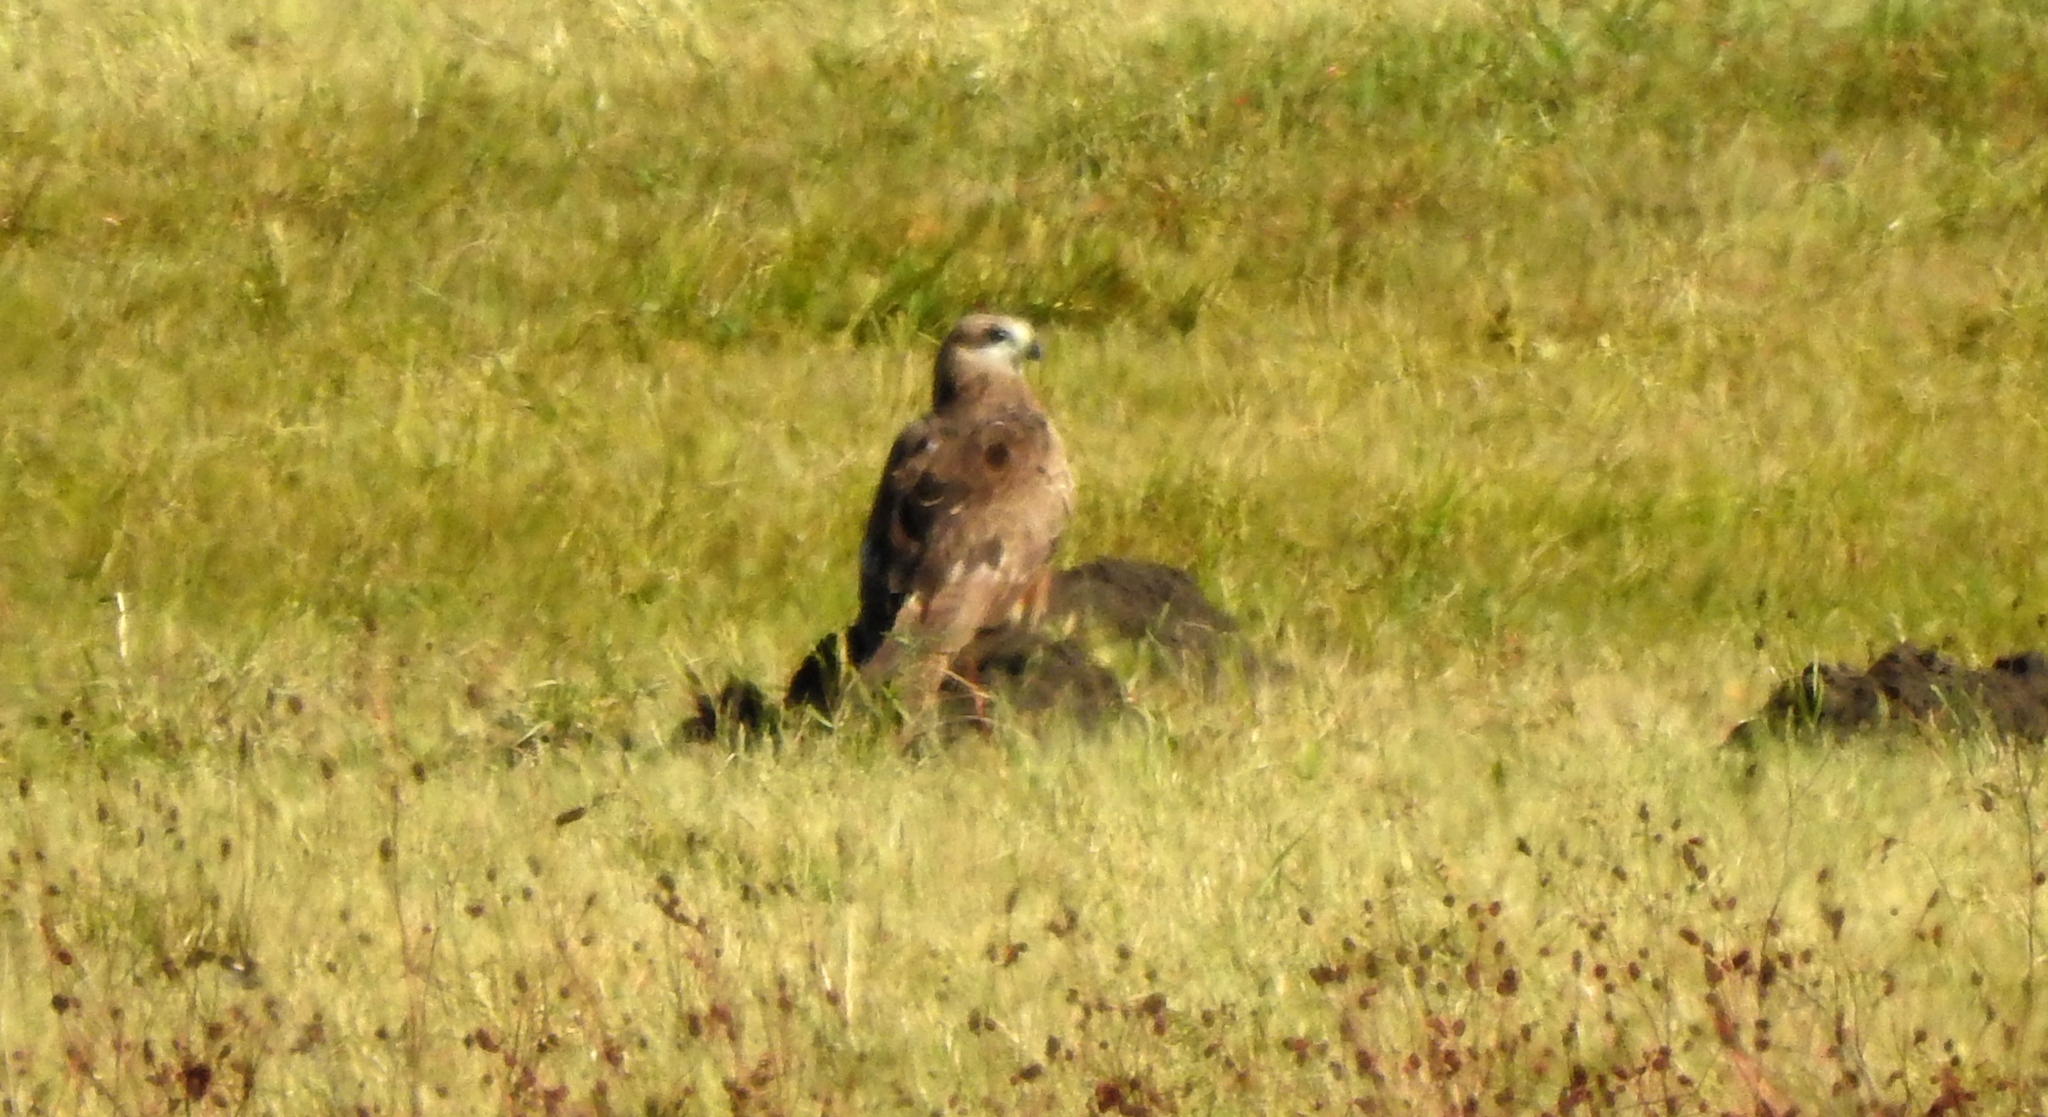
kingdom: Animalia
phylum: Chordata
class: Aves
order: Accipitriformes
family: Accipitridae
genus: Milvus
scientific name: Milvus migrans
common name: Black kite
